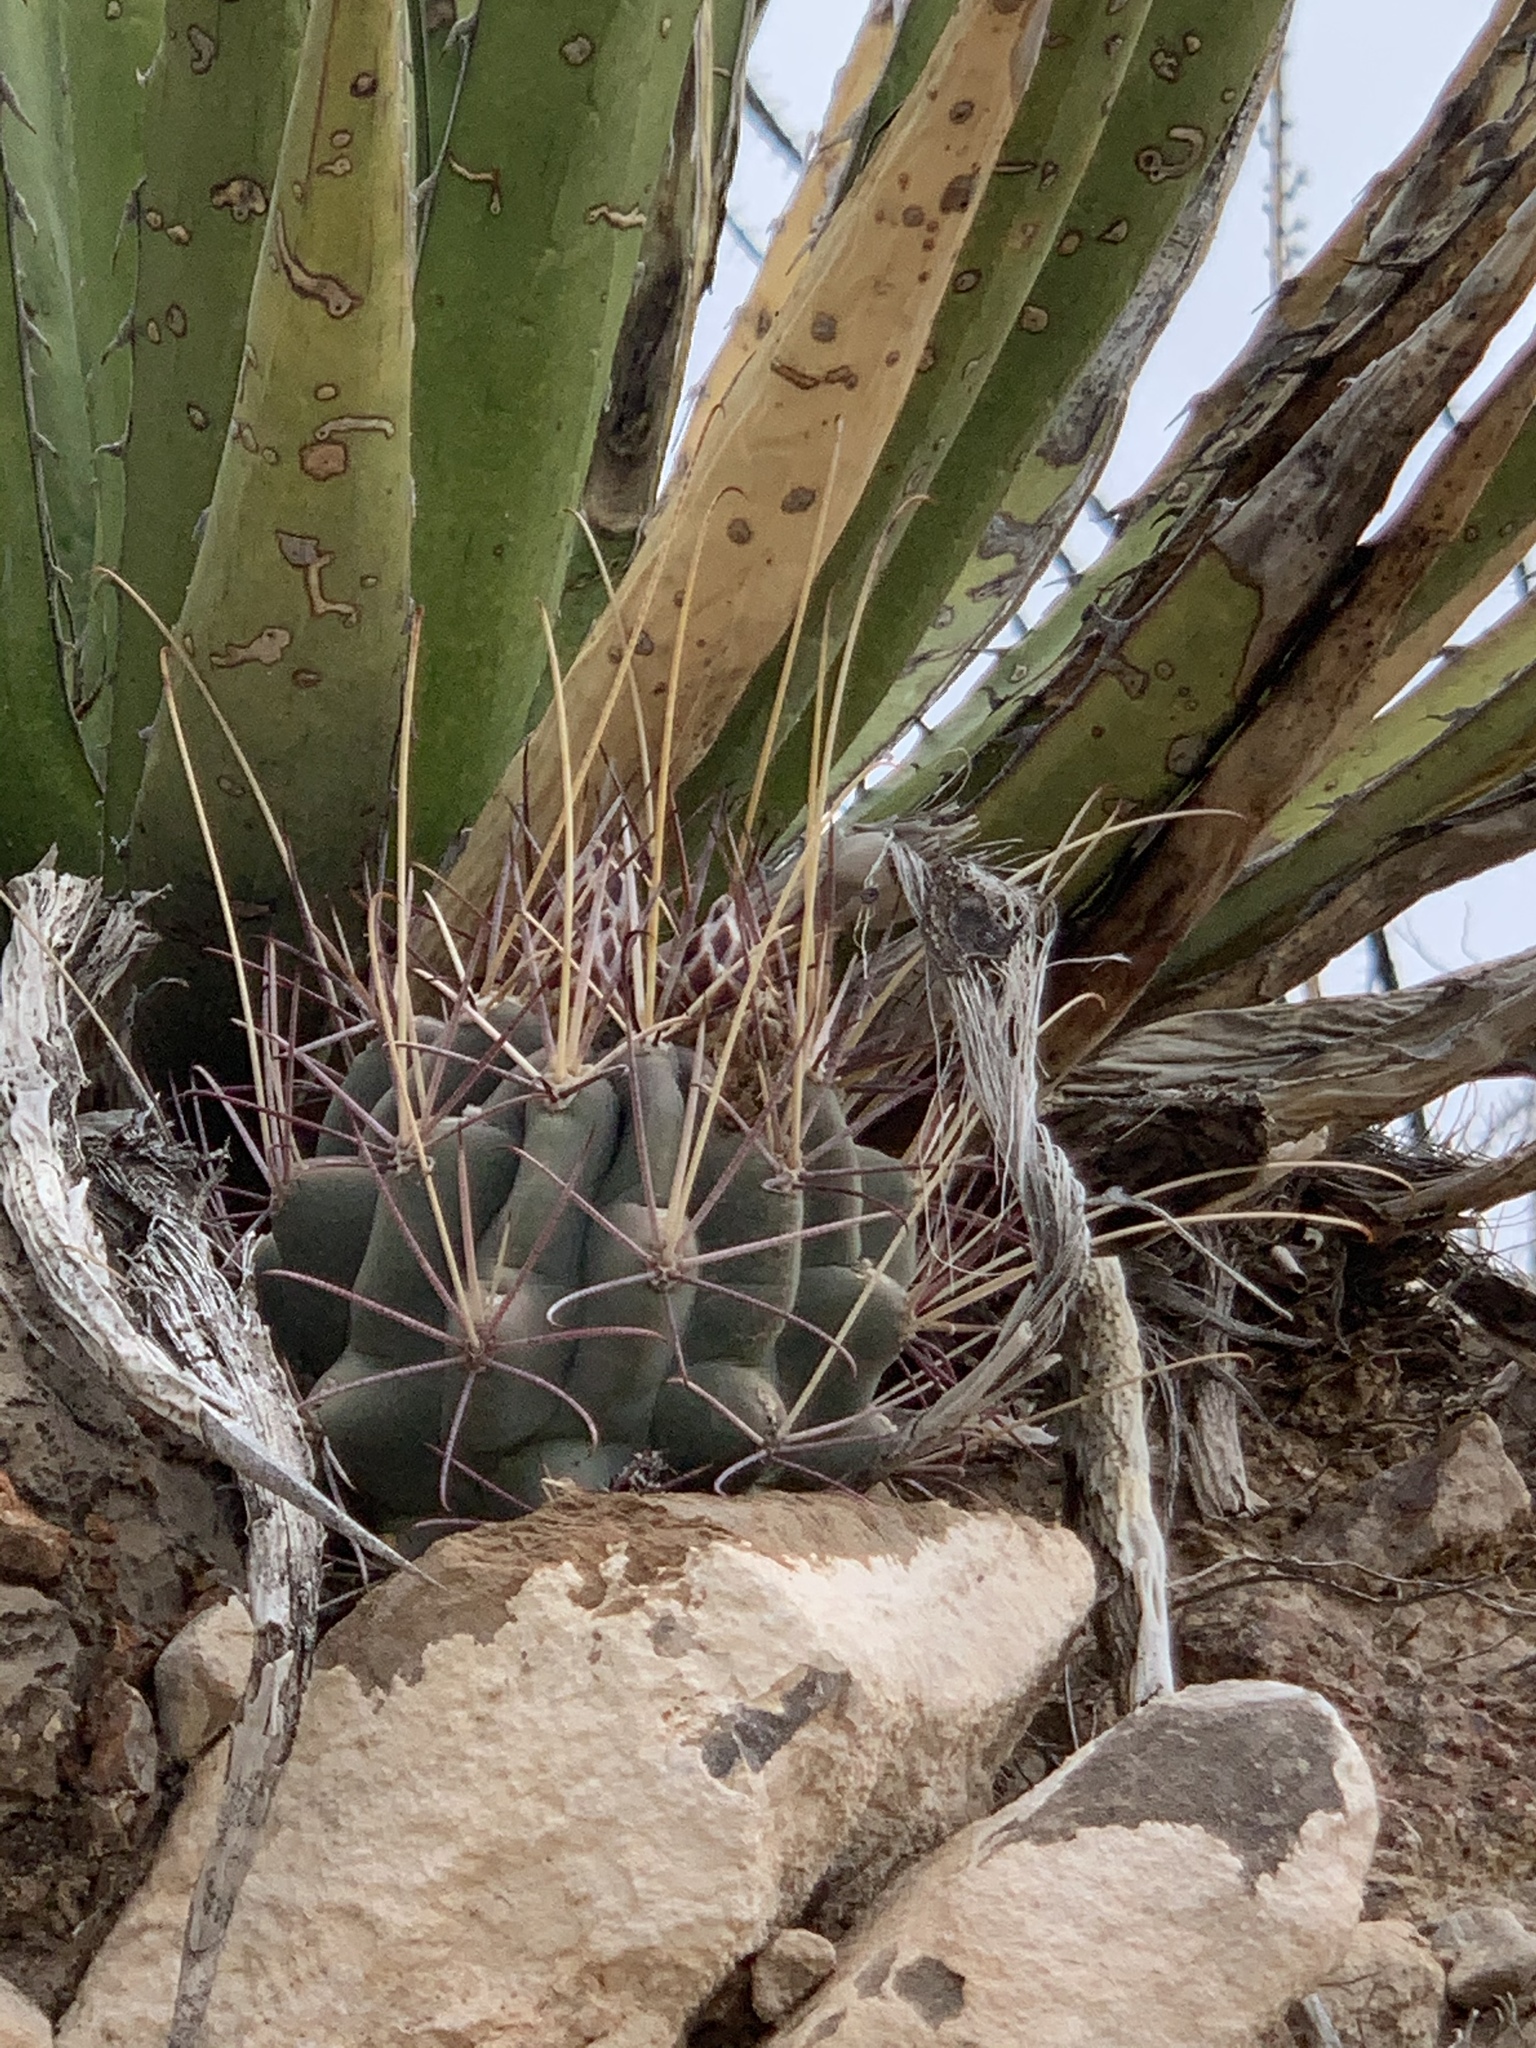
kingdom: Plantae
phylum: Tracheophyta
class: Magnoliopsida
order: Caryophyllales
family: Cactaceae
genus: Ferocactus
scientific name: Ferocactus uncinatus
